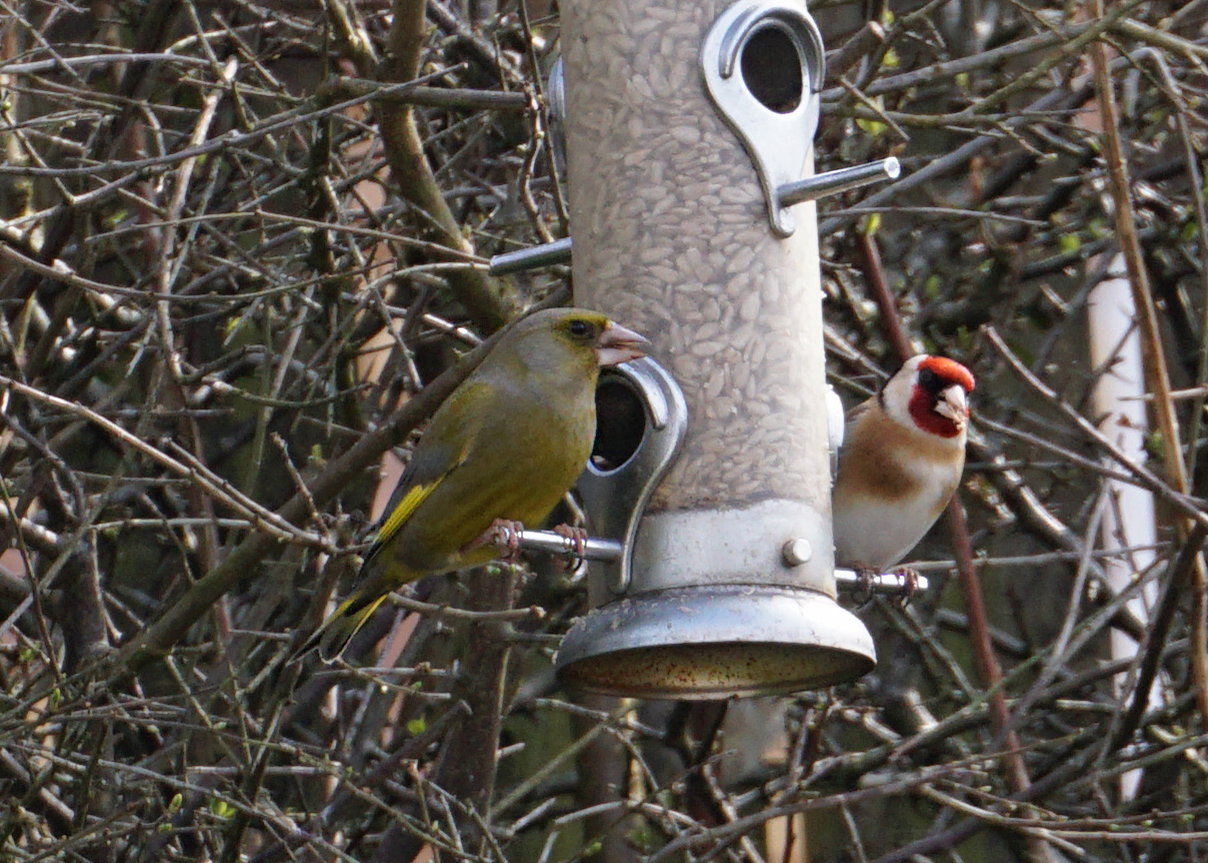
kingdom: Plantae
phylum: Tracheophyta
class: Liliopsida
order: Poales
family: Poaceae
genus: Chloris
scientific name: Chloris chloris
